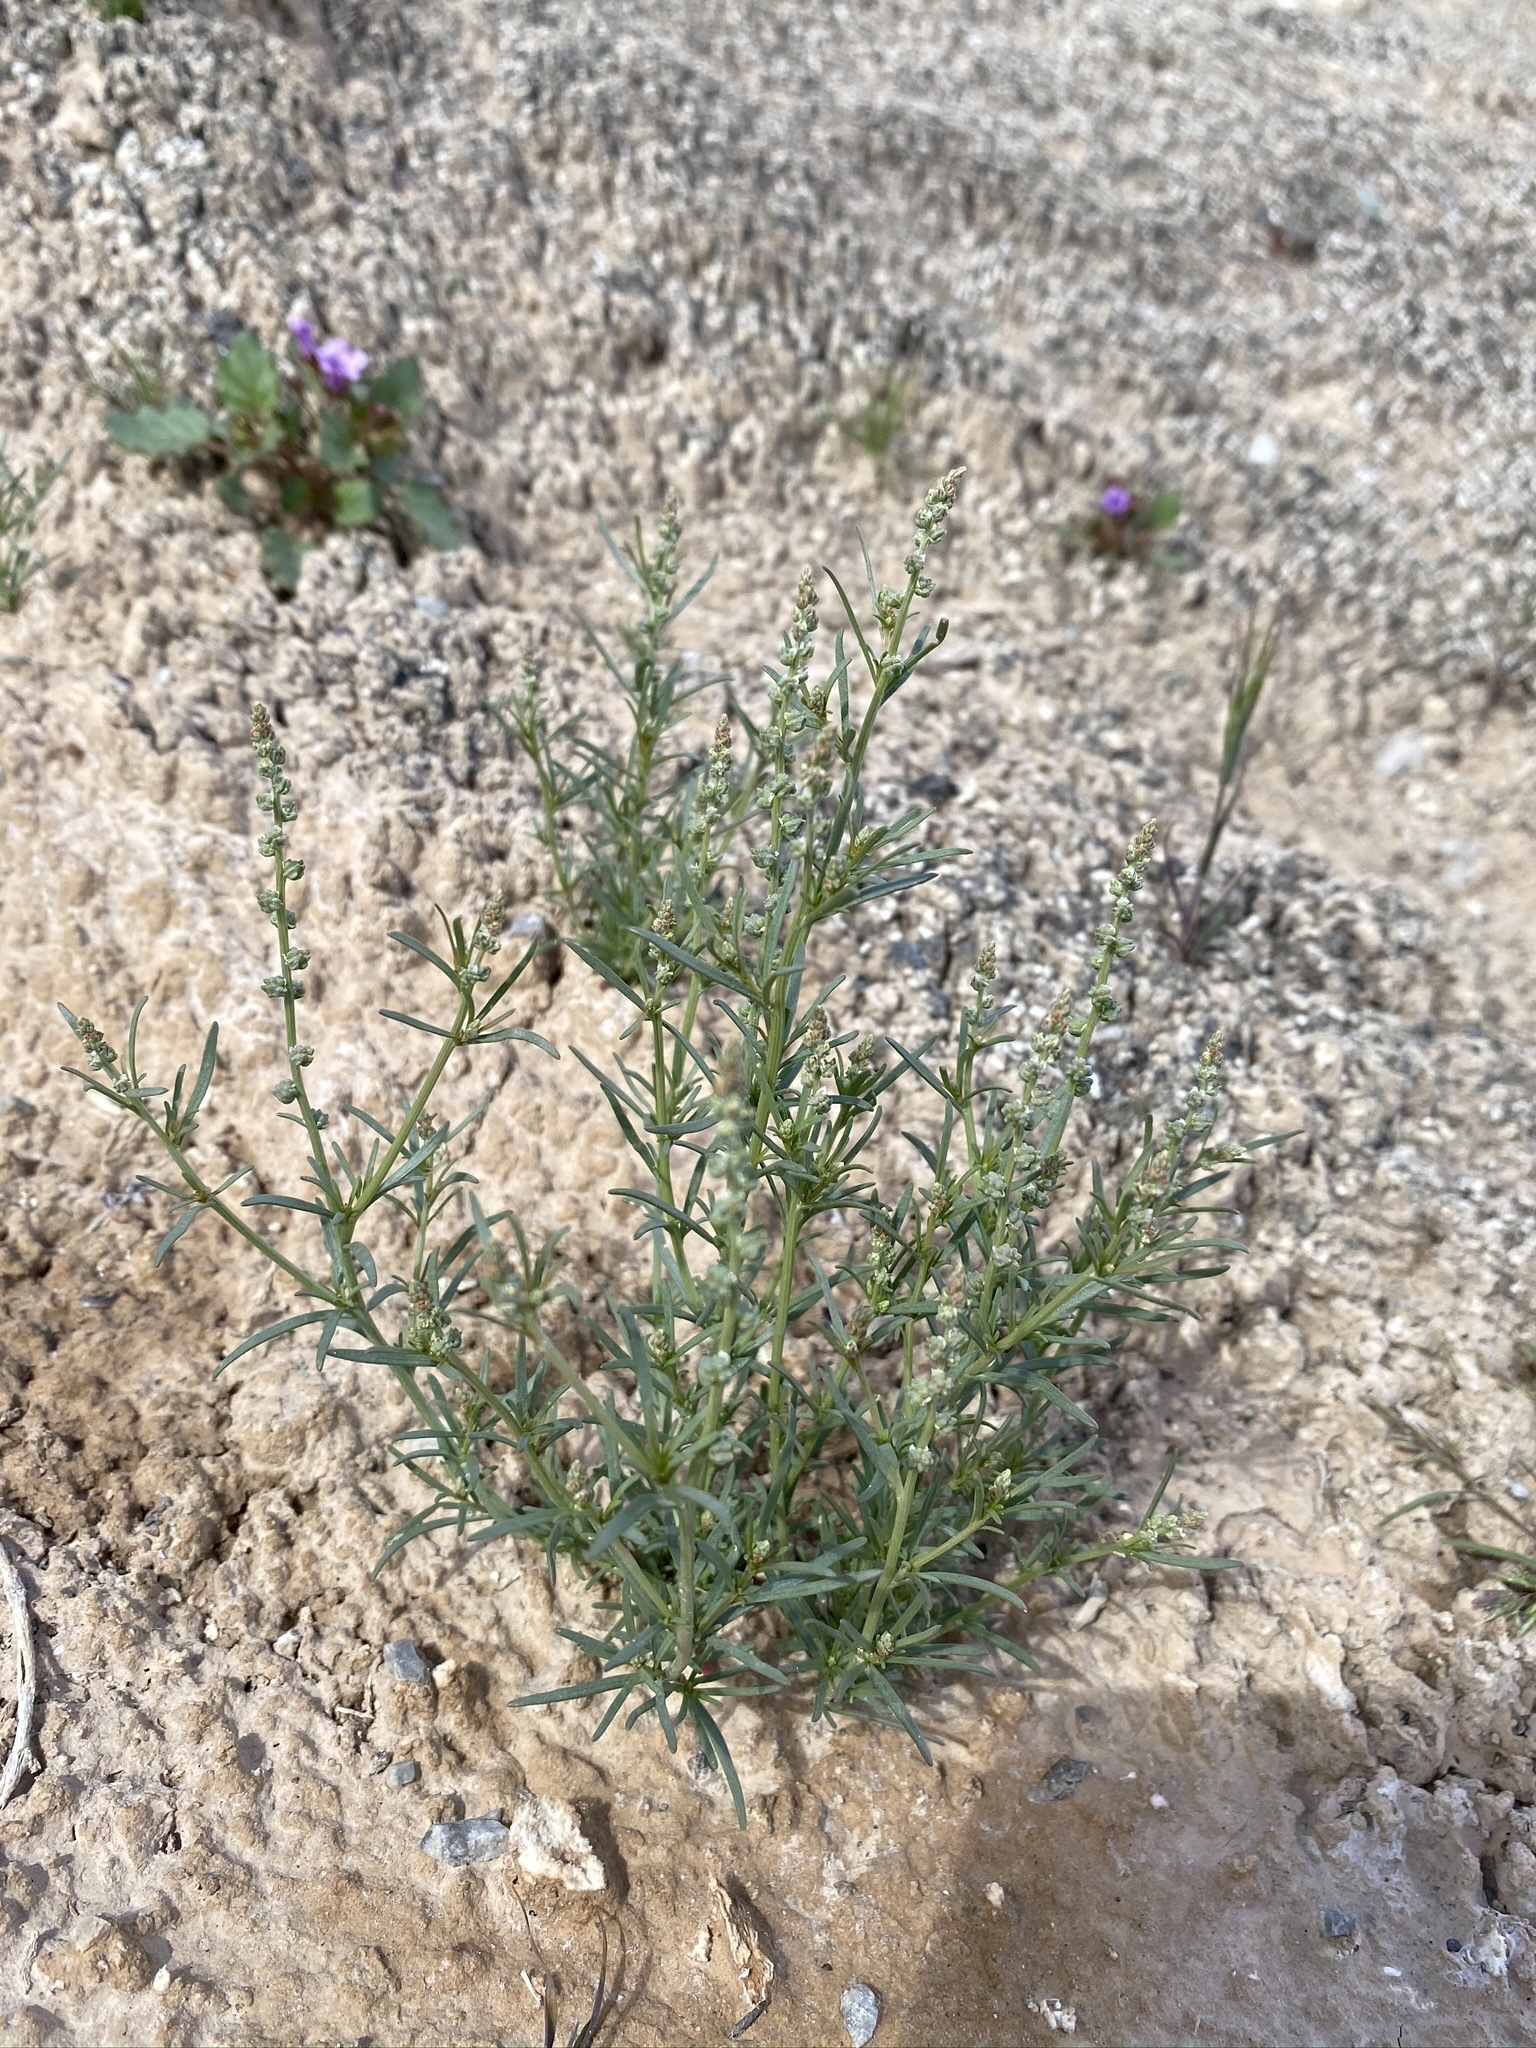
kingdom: Plantae
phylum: Tracheophyta
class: Magnoliopsida
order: Brassicales
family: Resedaceae
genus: Oligomeris
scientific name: Oligomeris linifolia
